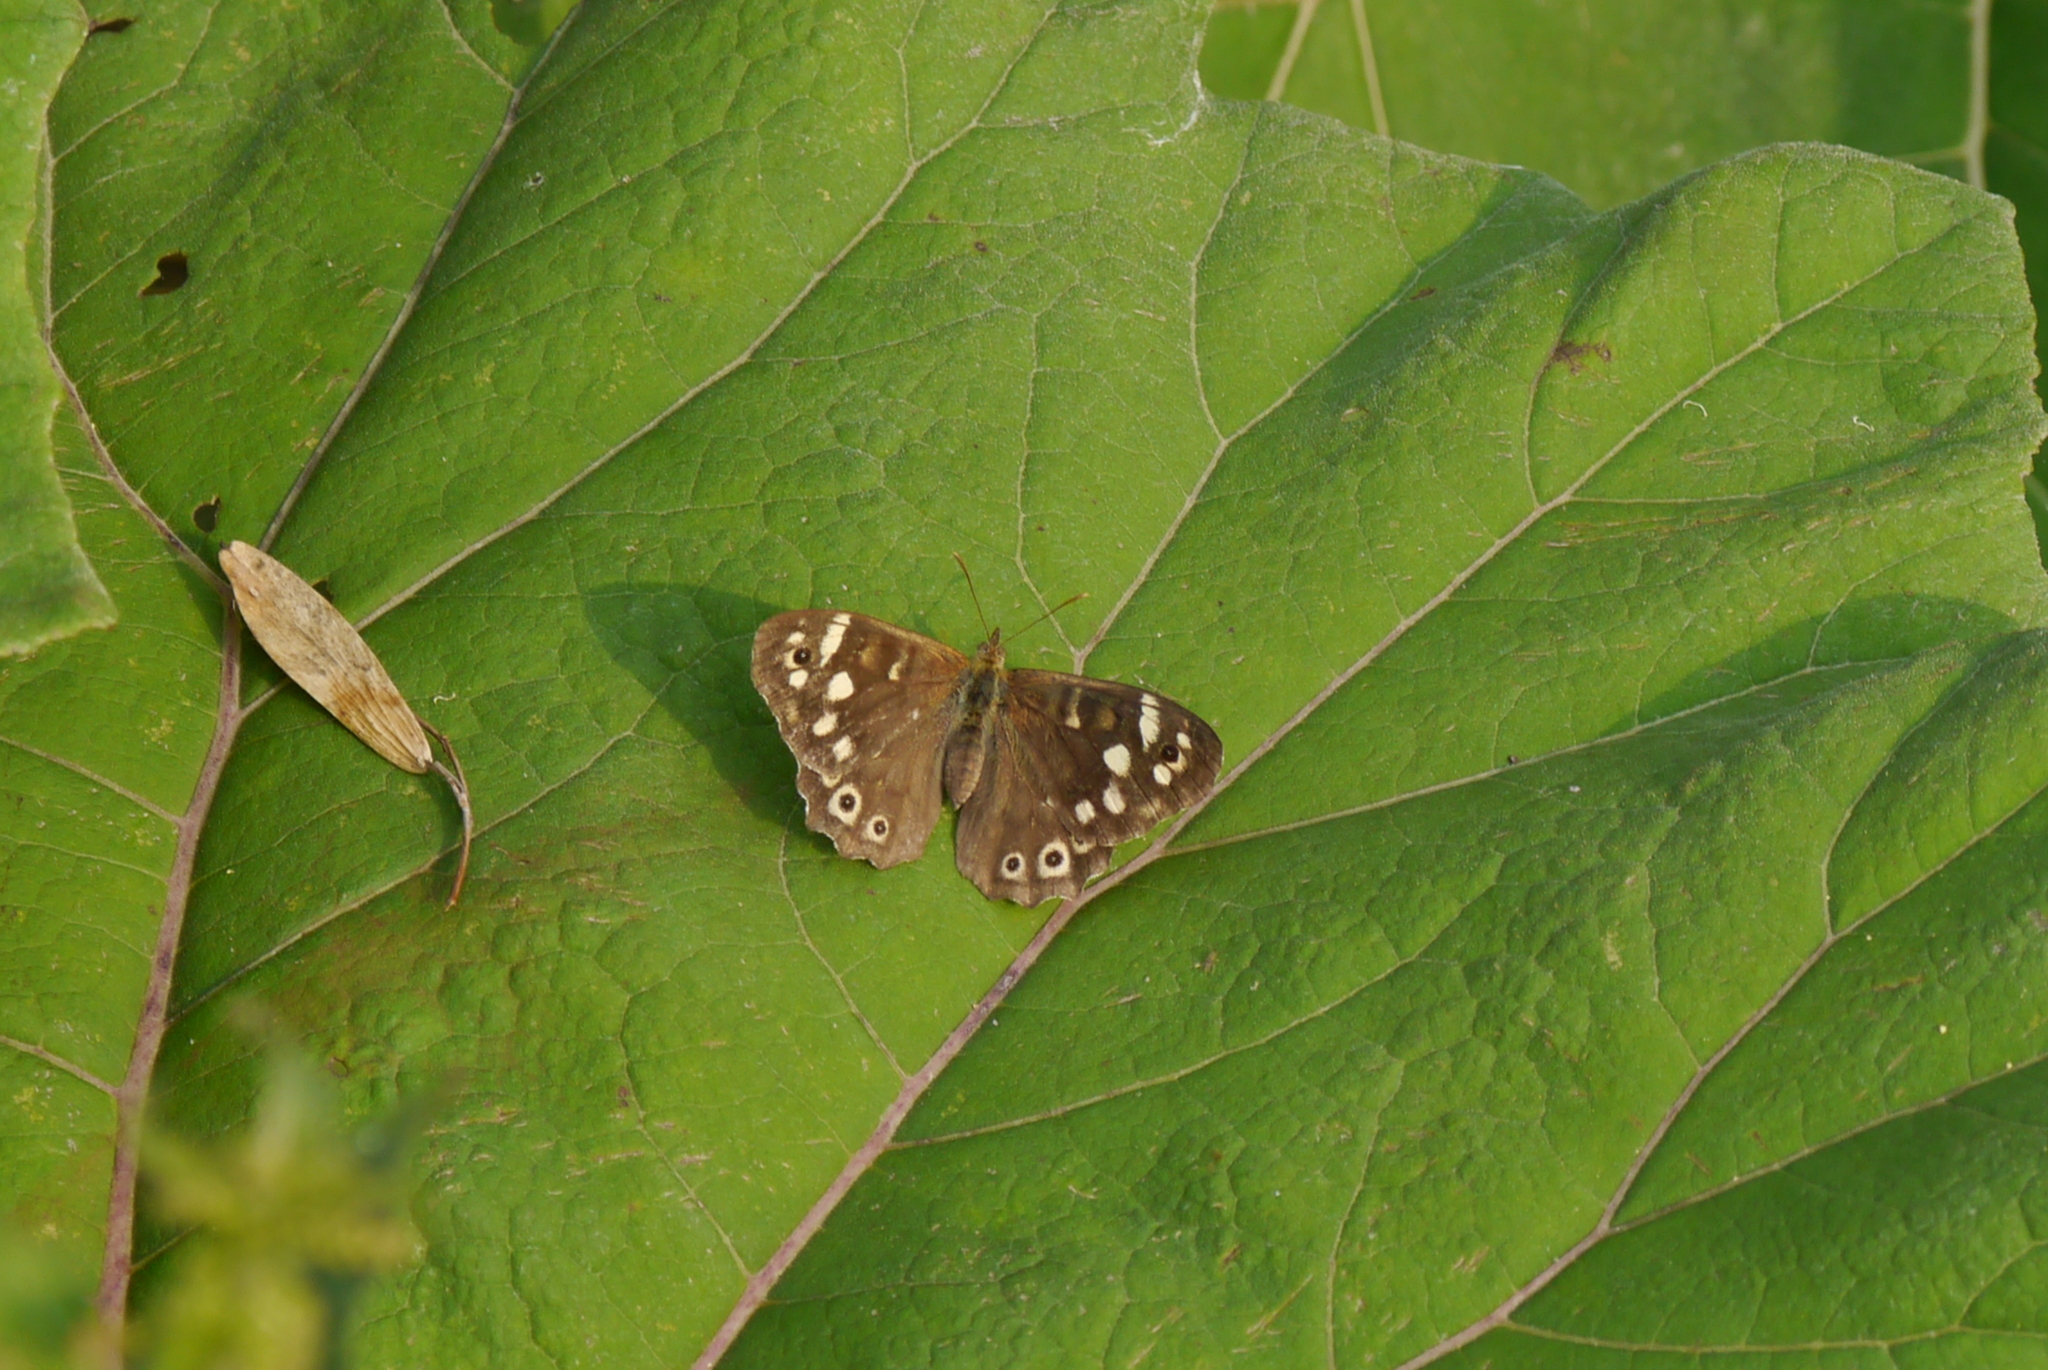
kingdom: Animalia
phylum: Arthropoda
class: Insecta
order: Lepidoptera
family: Nymphalidae
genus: Pararge
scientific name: Pararge aegeria
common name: Speckled wood
